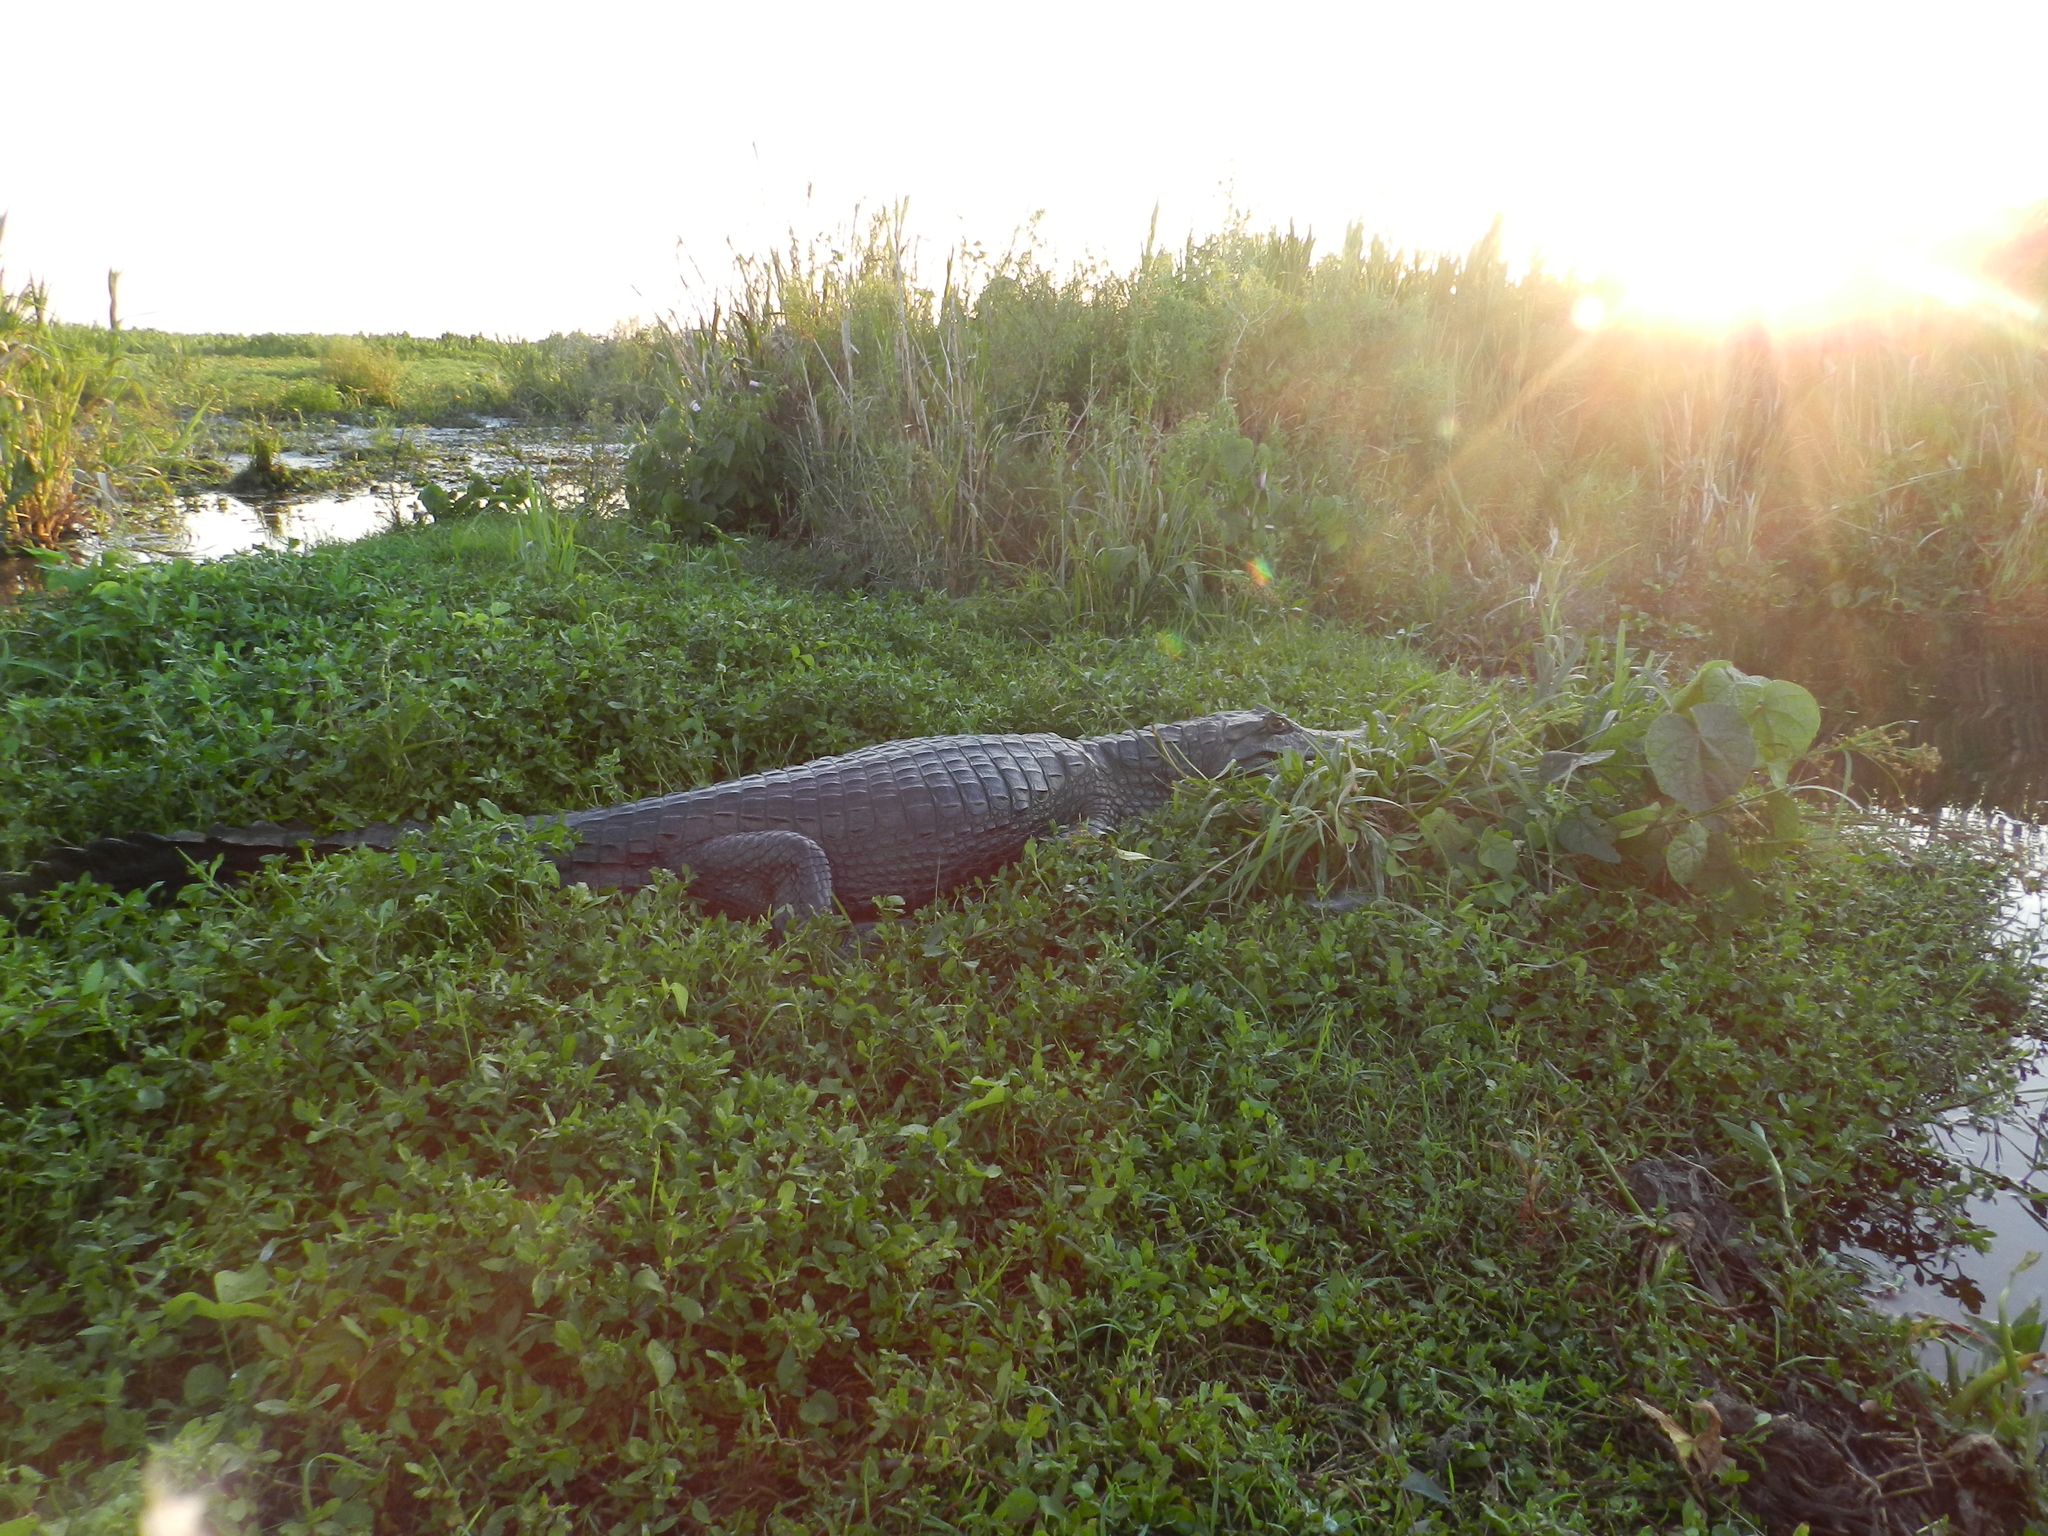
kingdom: Animalia
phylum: Chordata
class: Crocodylia
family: Alligatoridae
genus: Caiman
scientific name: Caiman yacare
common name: Yacare caiman
